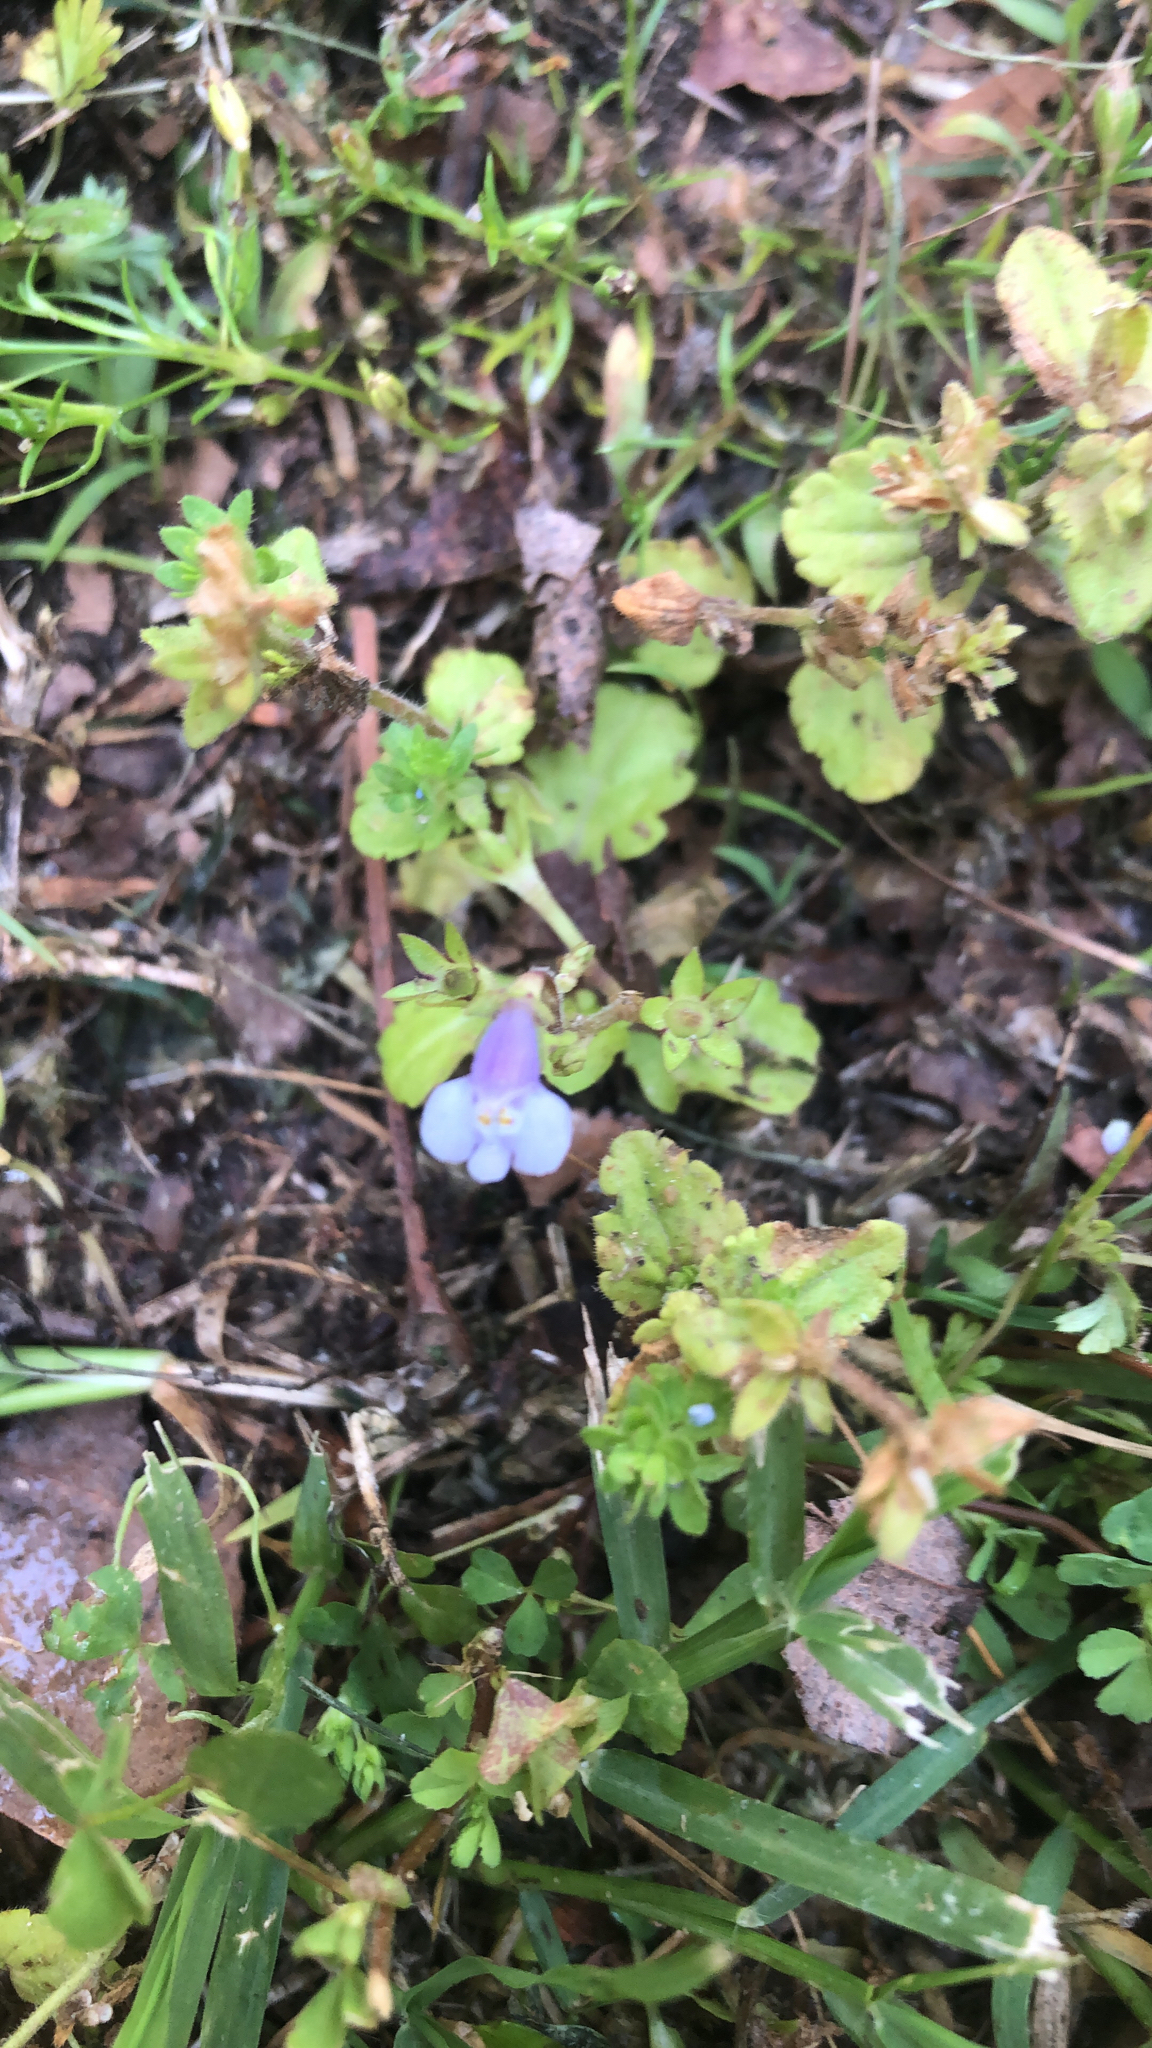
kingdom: Plantae
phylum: Tracheophyta
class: Magnoliopsida
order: Lamiales
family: Mazaceae
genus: Mazus
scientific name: Mazus pumilus
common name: Japanese mazus
